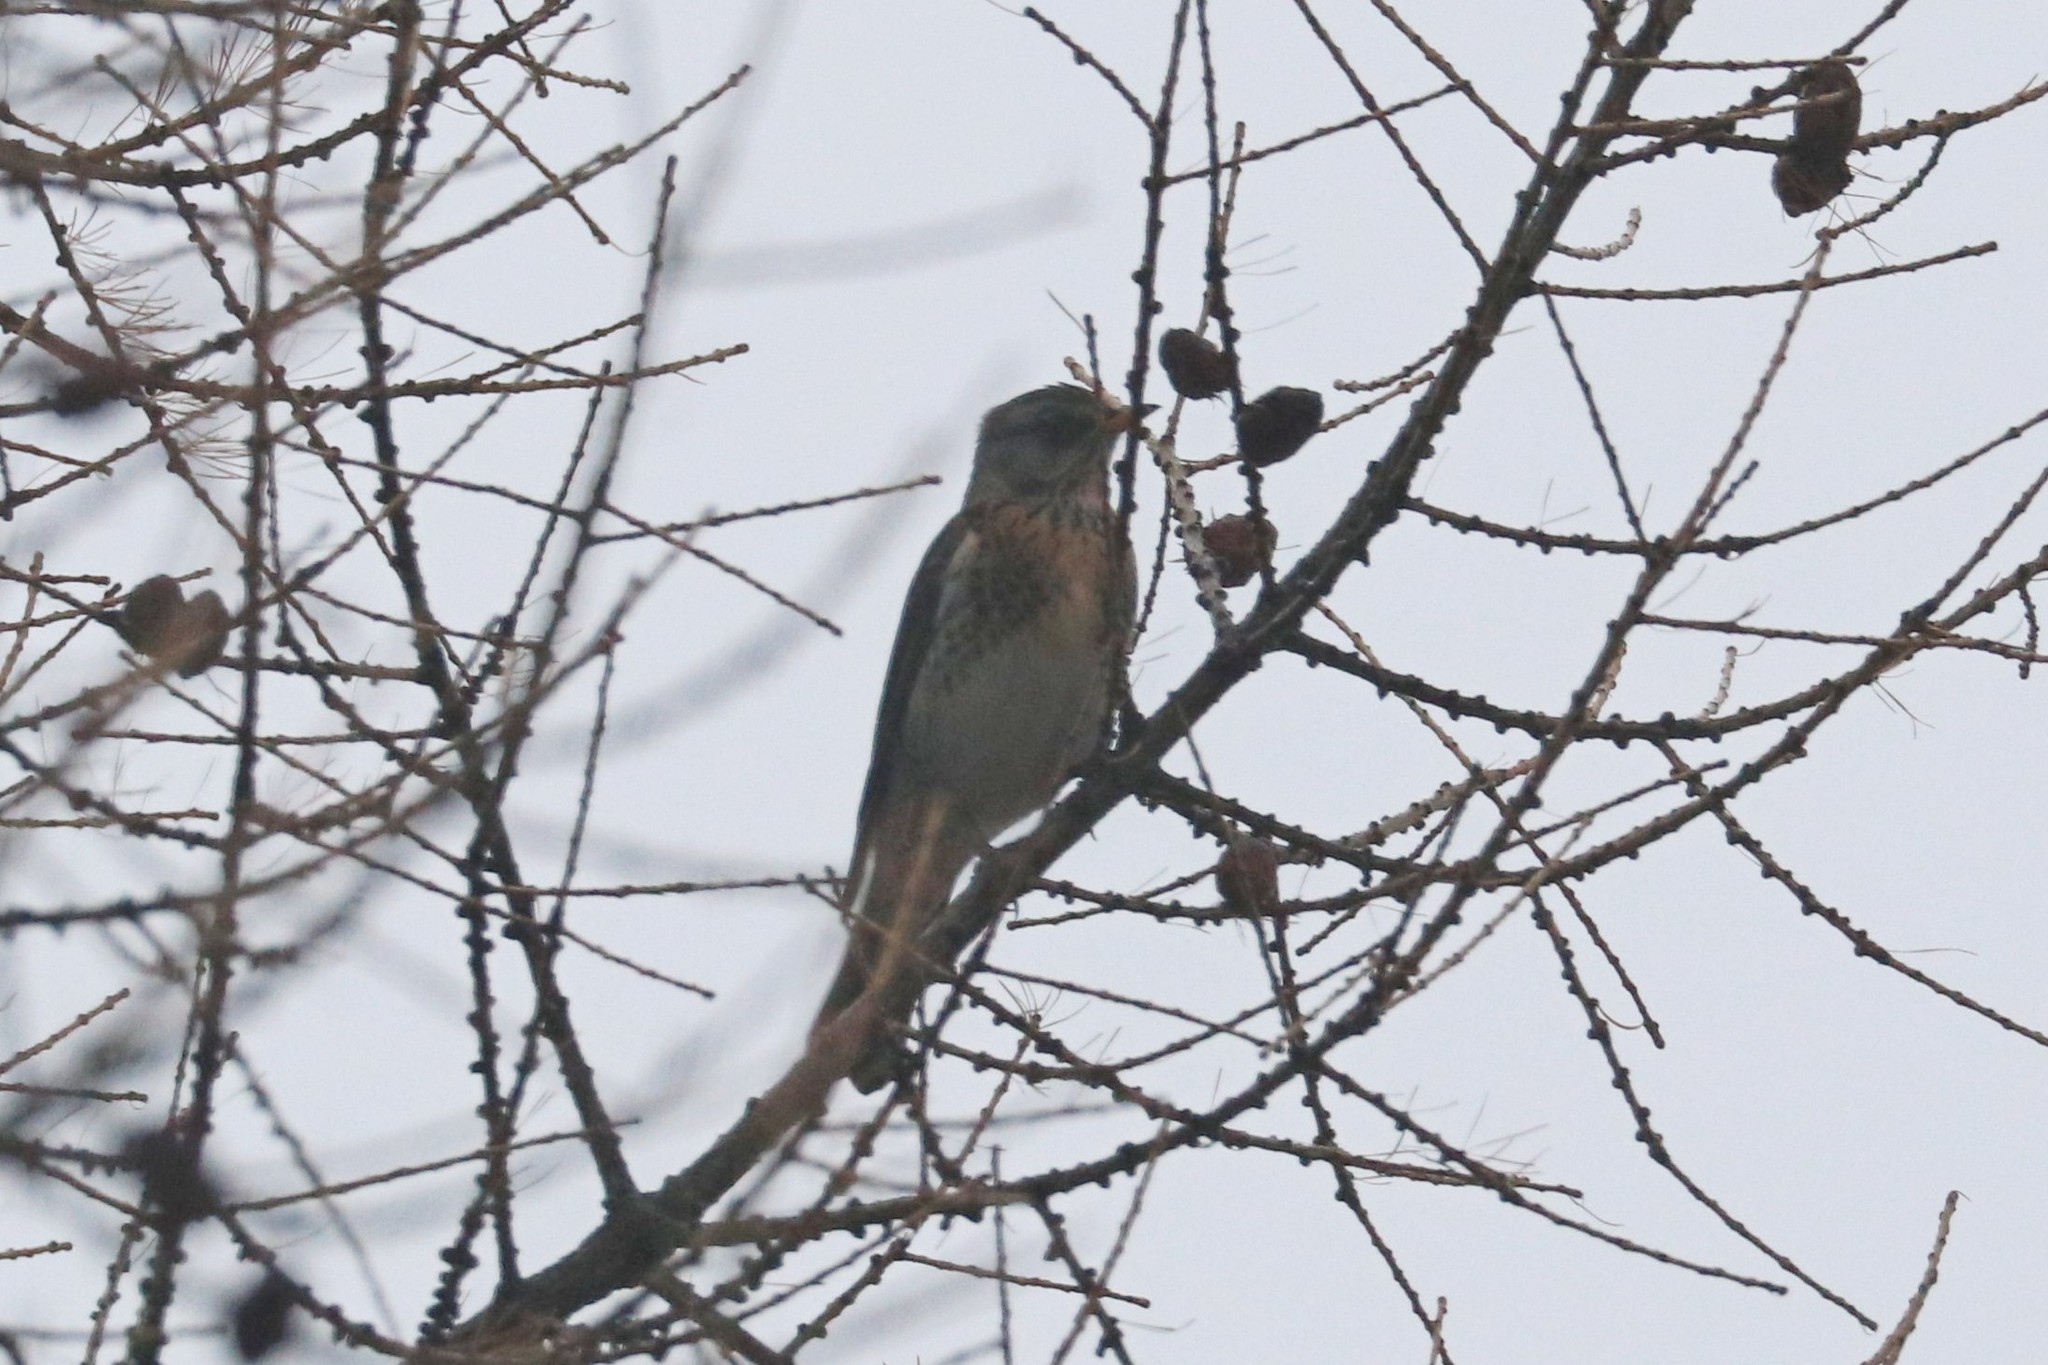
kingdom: Animalia
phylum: Chordata
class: Aves
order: Passeriformes
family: Turdidae
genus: Turdus
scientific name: Turdus pilaris
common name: Fieldfare
